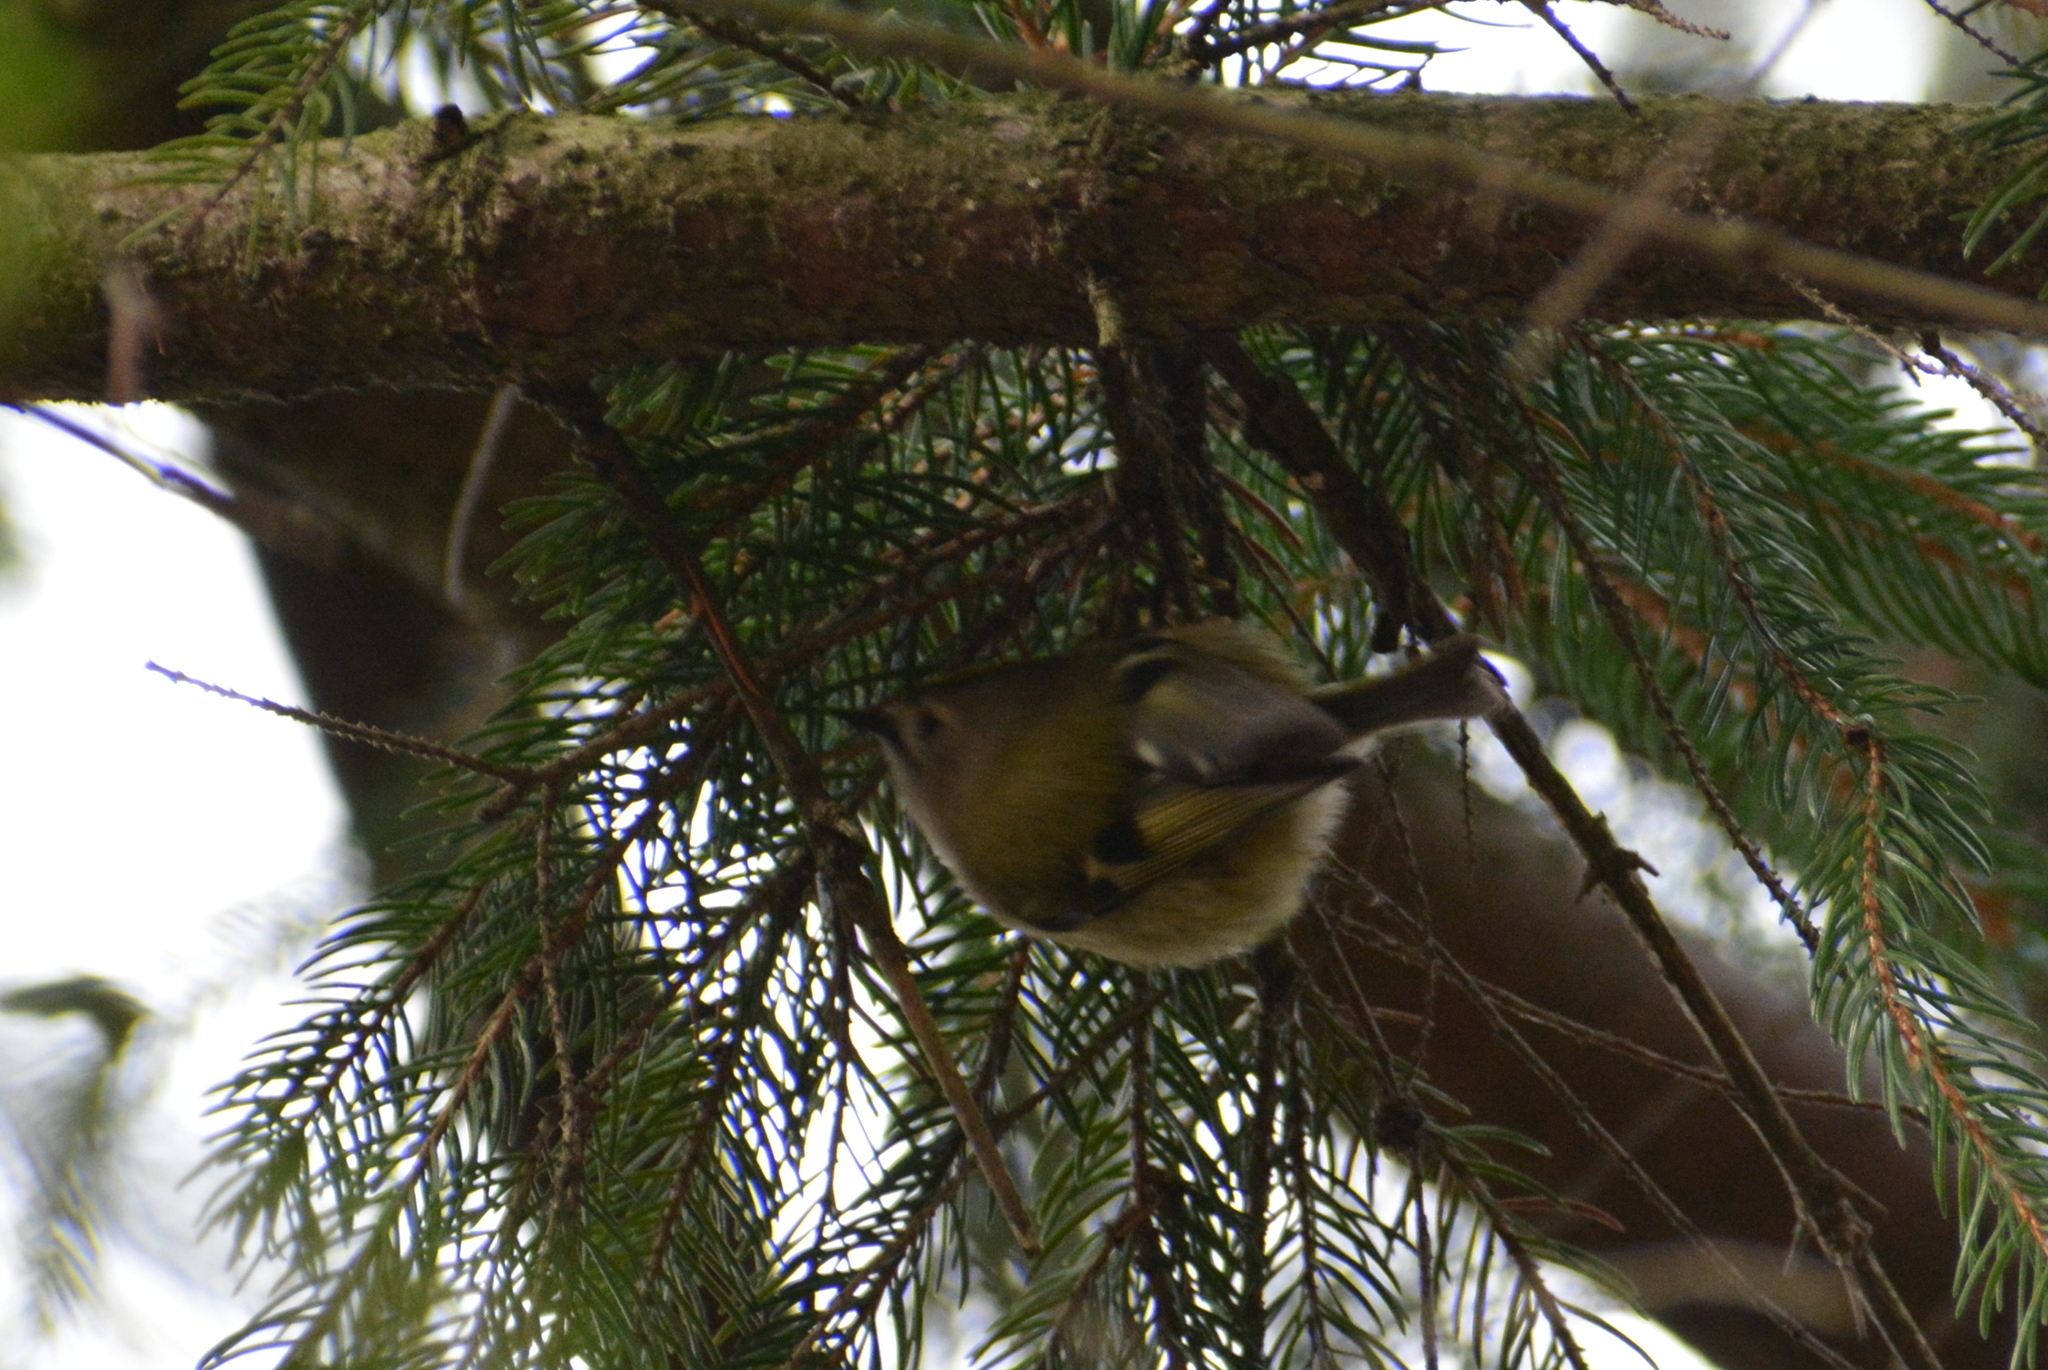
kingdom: Animalia
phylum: Chordata
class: Aves
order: Passeriformes
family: Regulidae
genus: Regulus
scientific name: Regulus regulus
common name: Goldcrest
